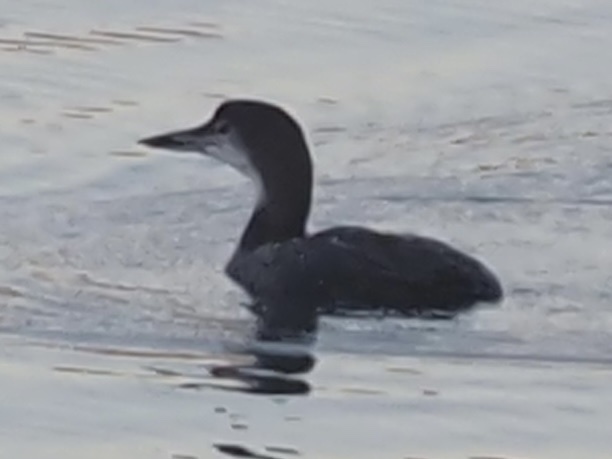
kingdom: Animalia
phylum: Chordata
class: Aves
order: Gaviiformes
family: Gaviidae
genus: Gavia
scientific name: Gavia immer
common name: Common loon
